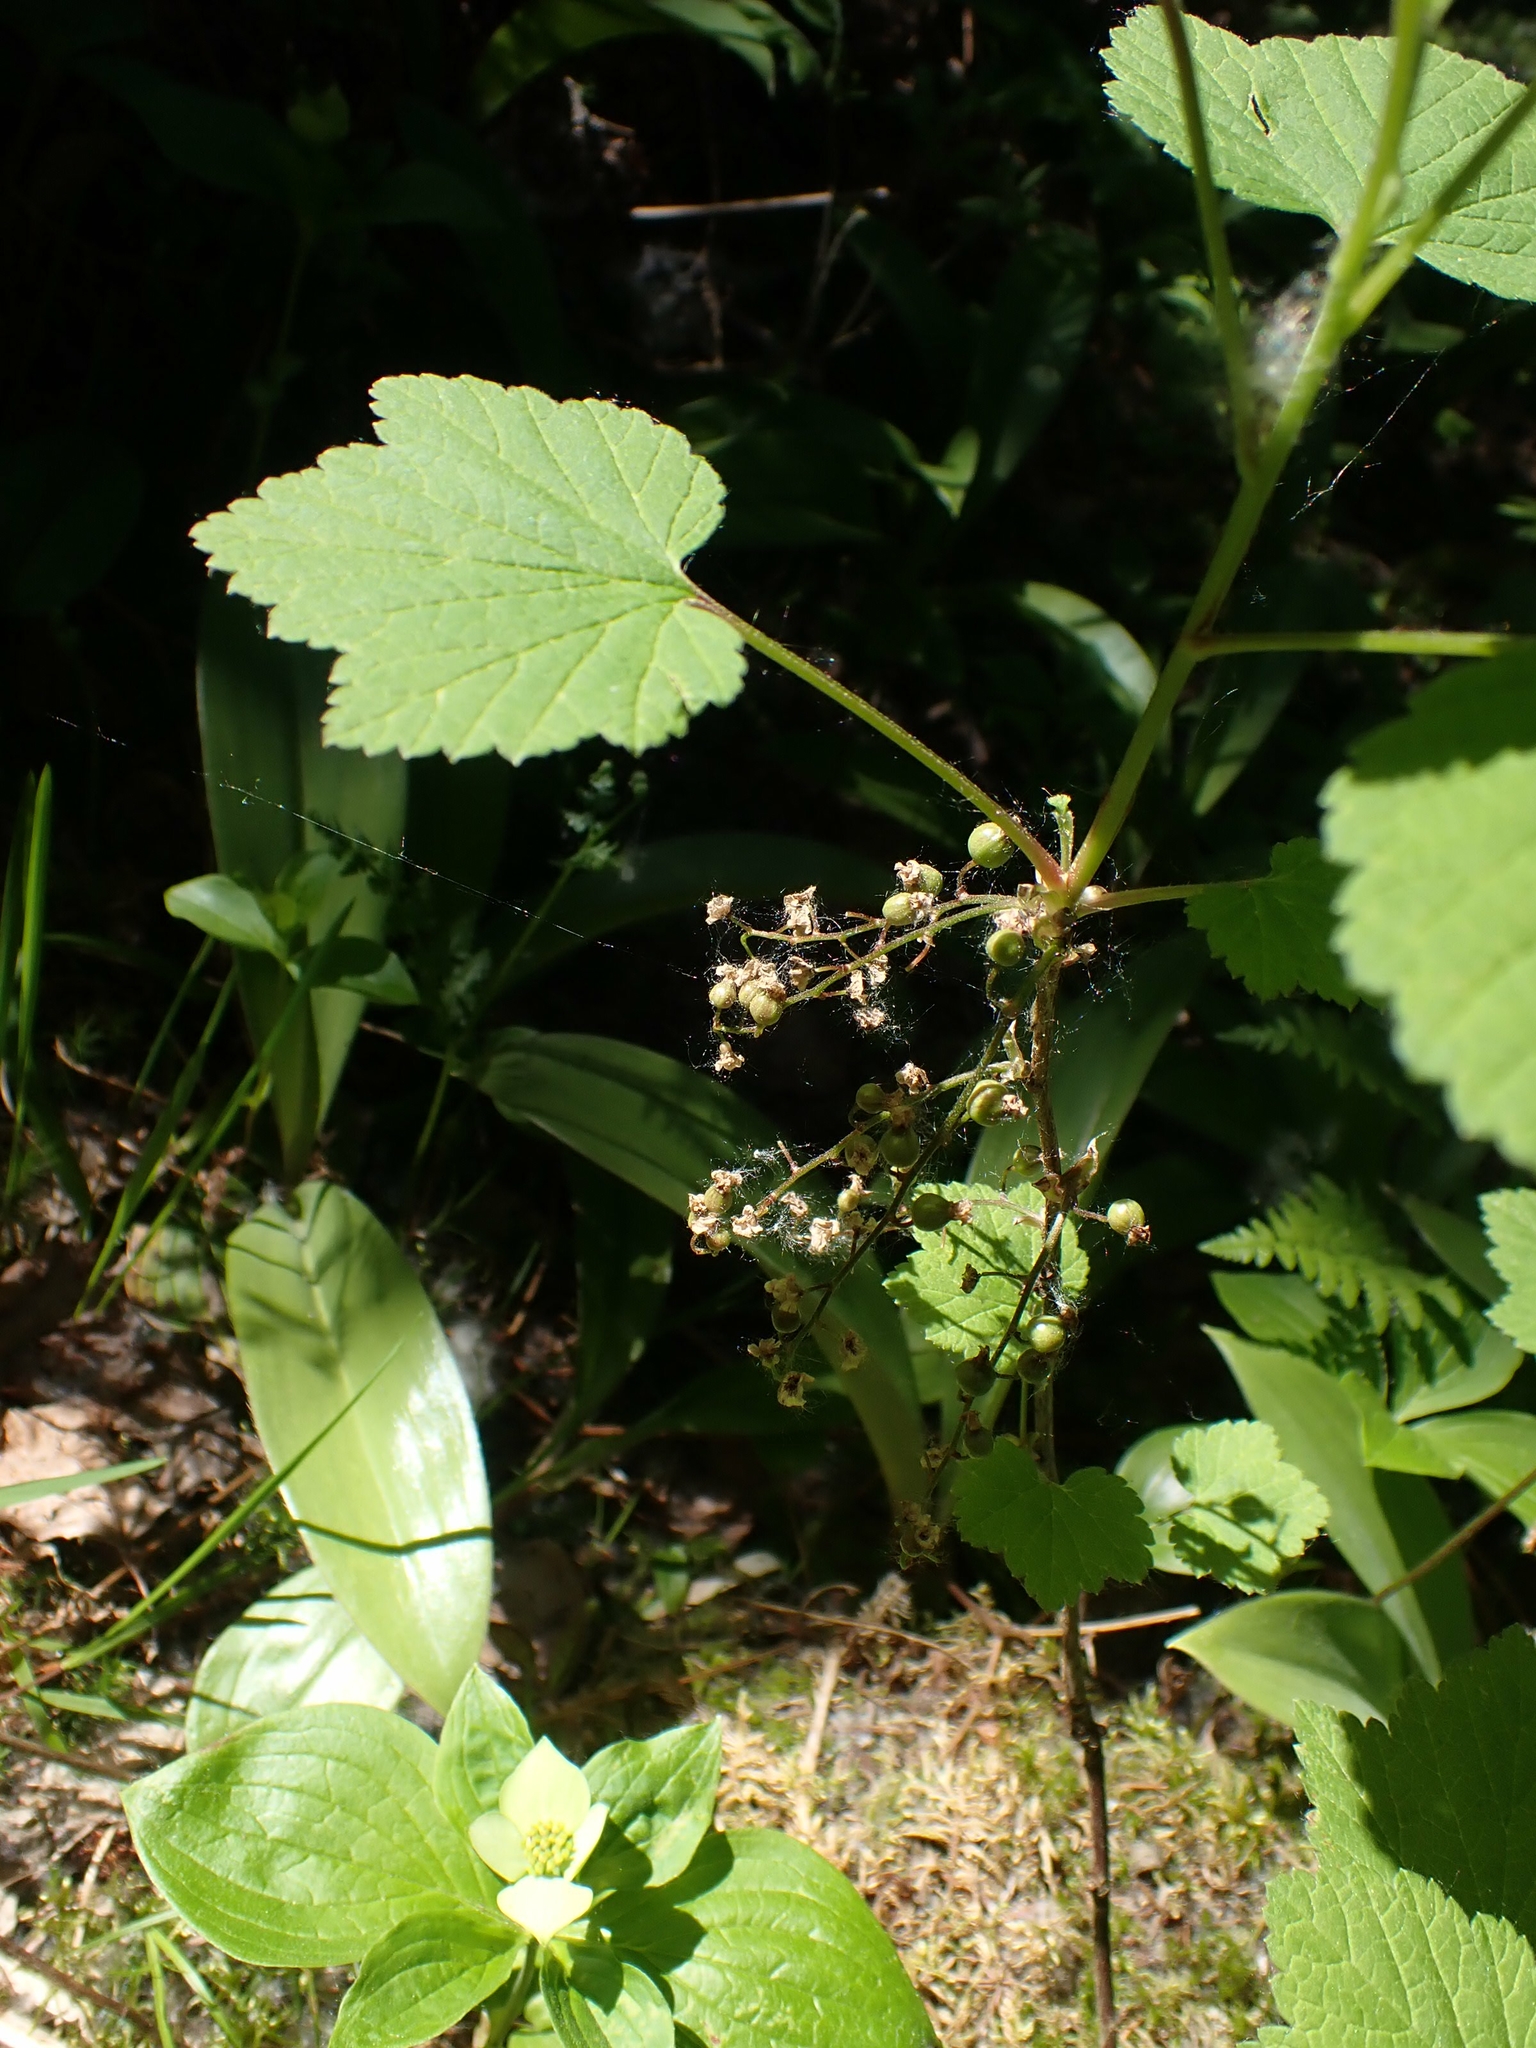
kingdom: Plantae
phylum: Tracheophyta
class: Magnoliopsida
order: Saxifragales
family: Grossulariaceae
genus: Ribes
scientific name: Ribes triste
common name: Swamp red currant
